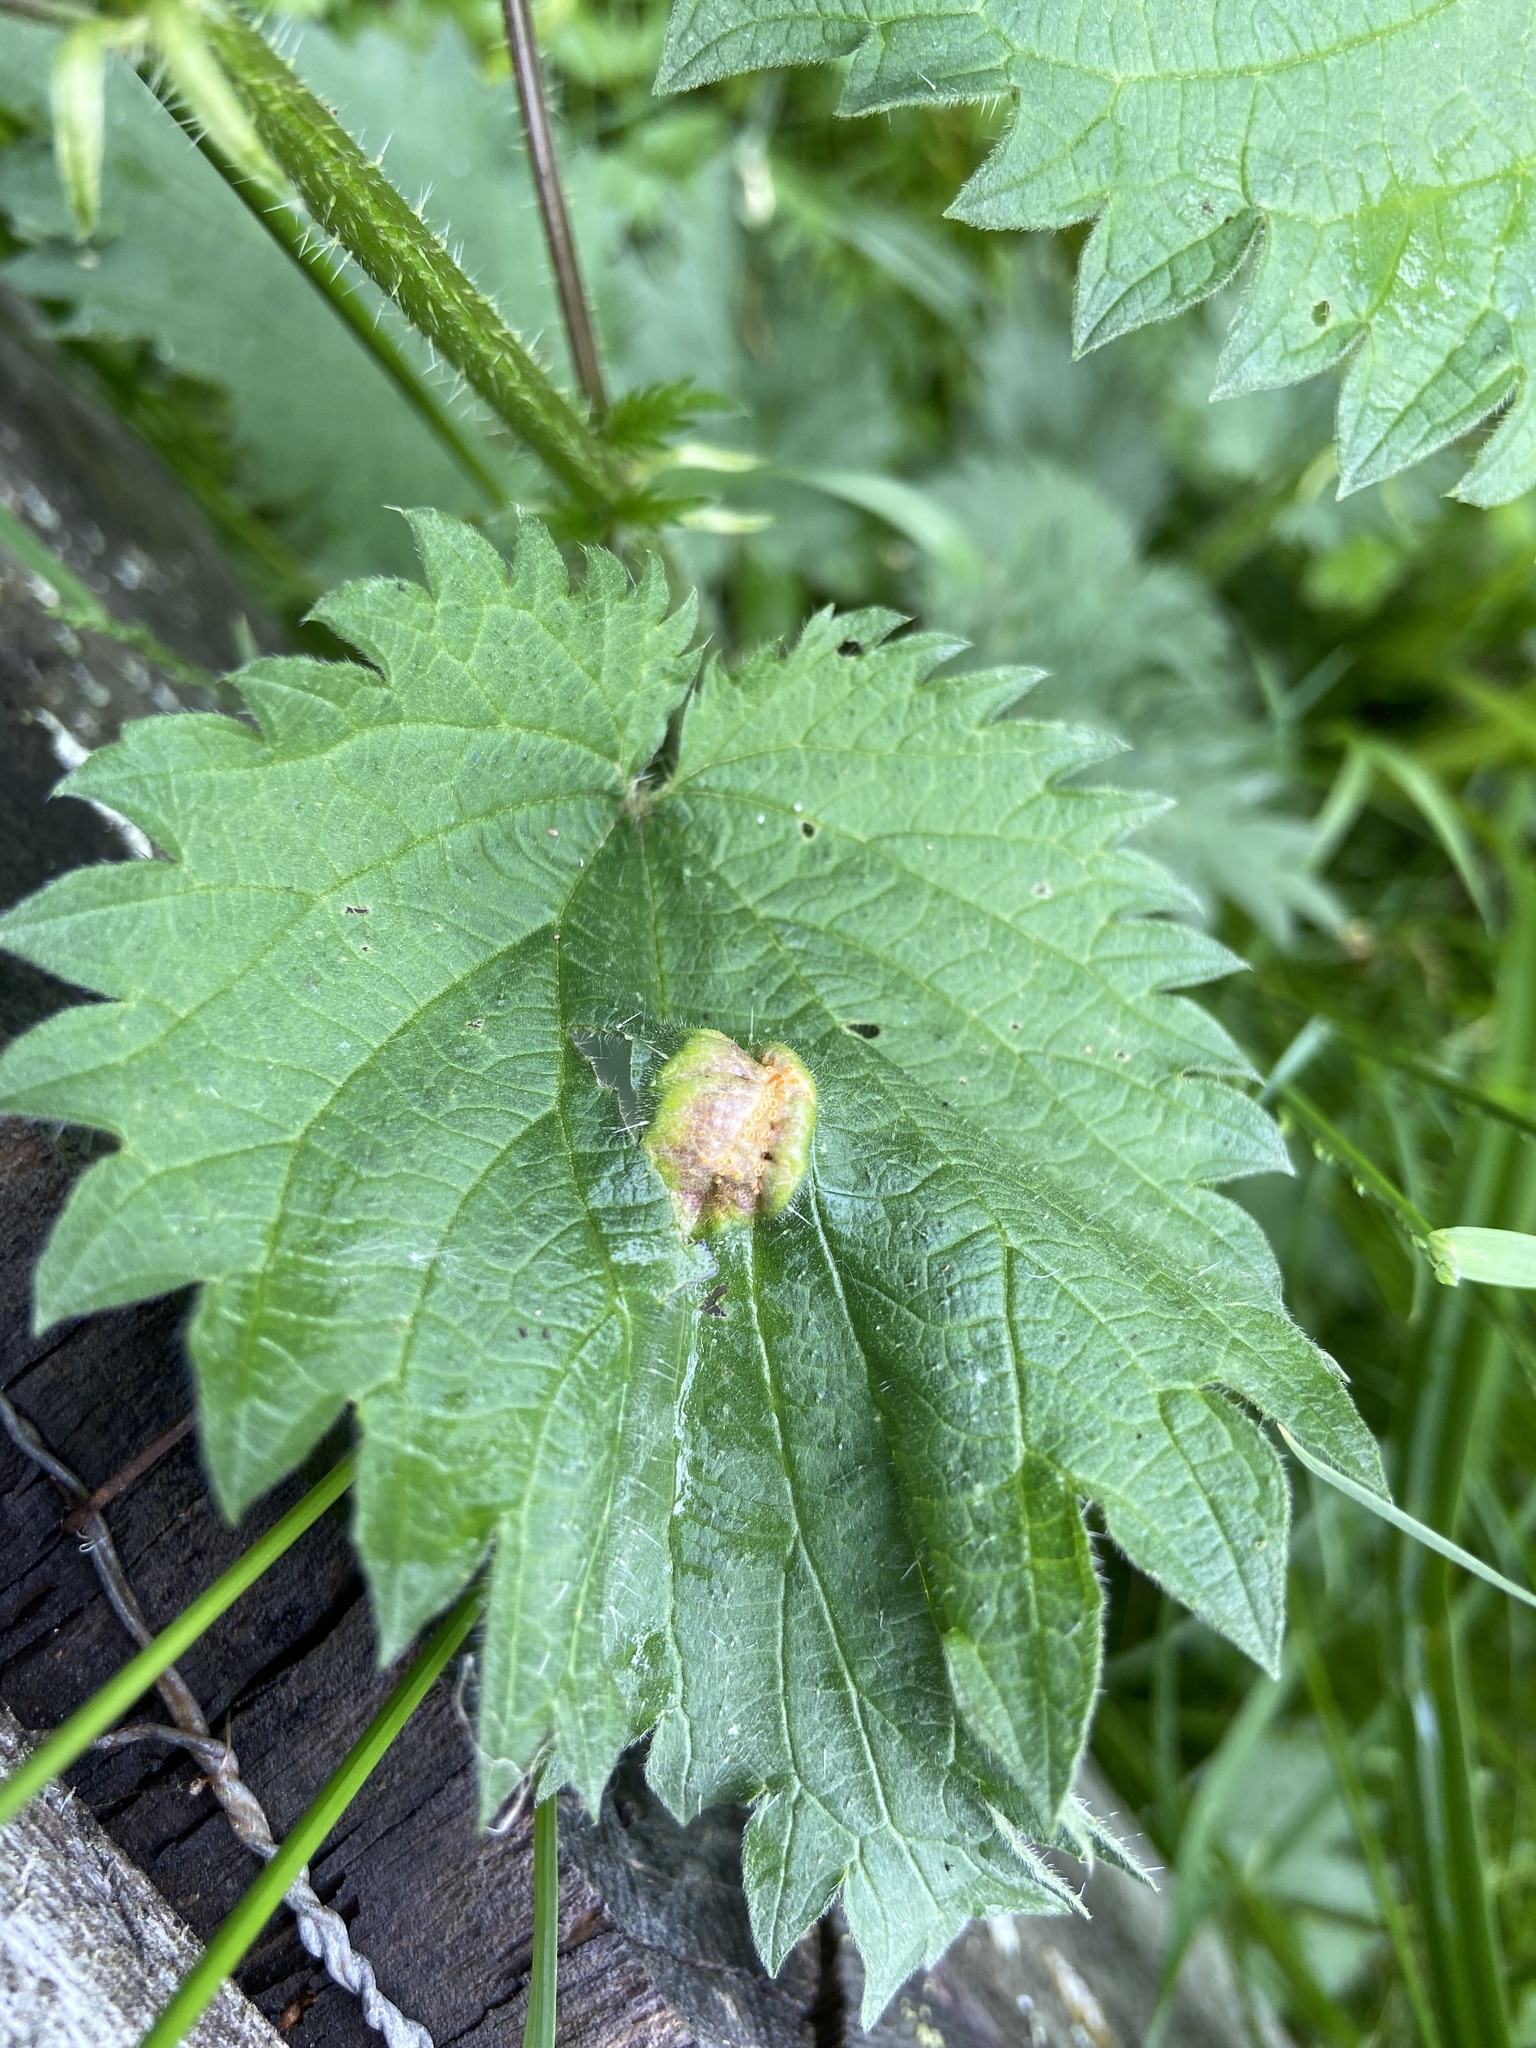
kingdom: Fungi
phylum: Basidiomycota
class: Pucciniomycetes
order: Pucciniales
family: Pucciniaceae
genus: Puccinia
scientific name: Puccinia urticata
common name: Nettle clustercup rust fungus
